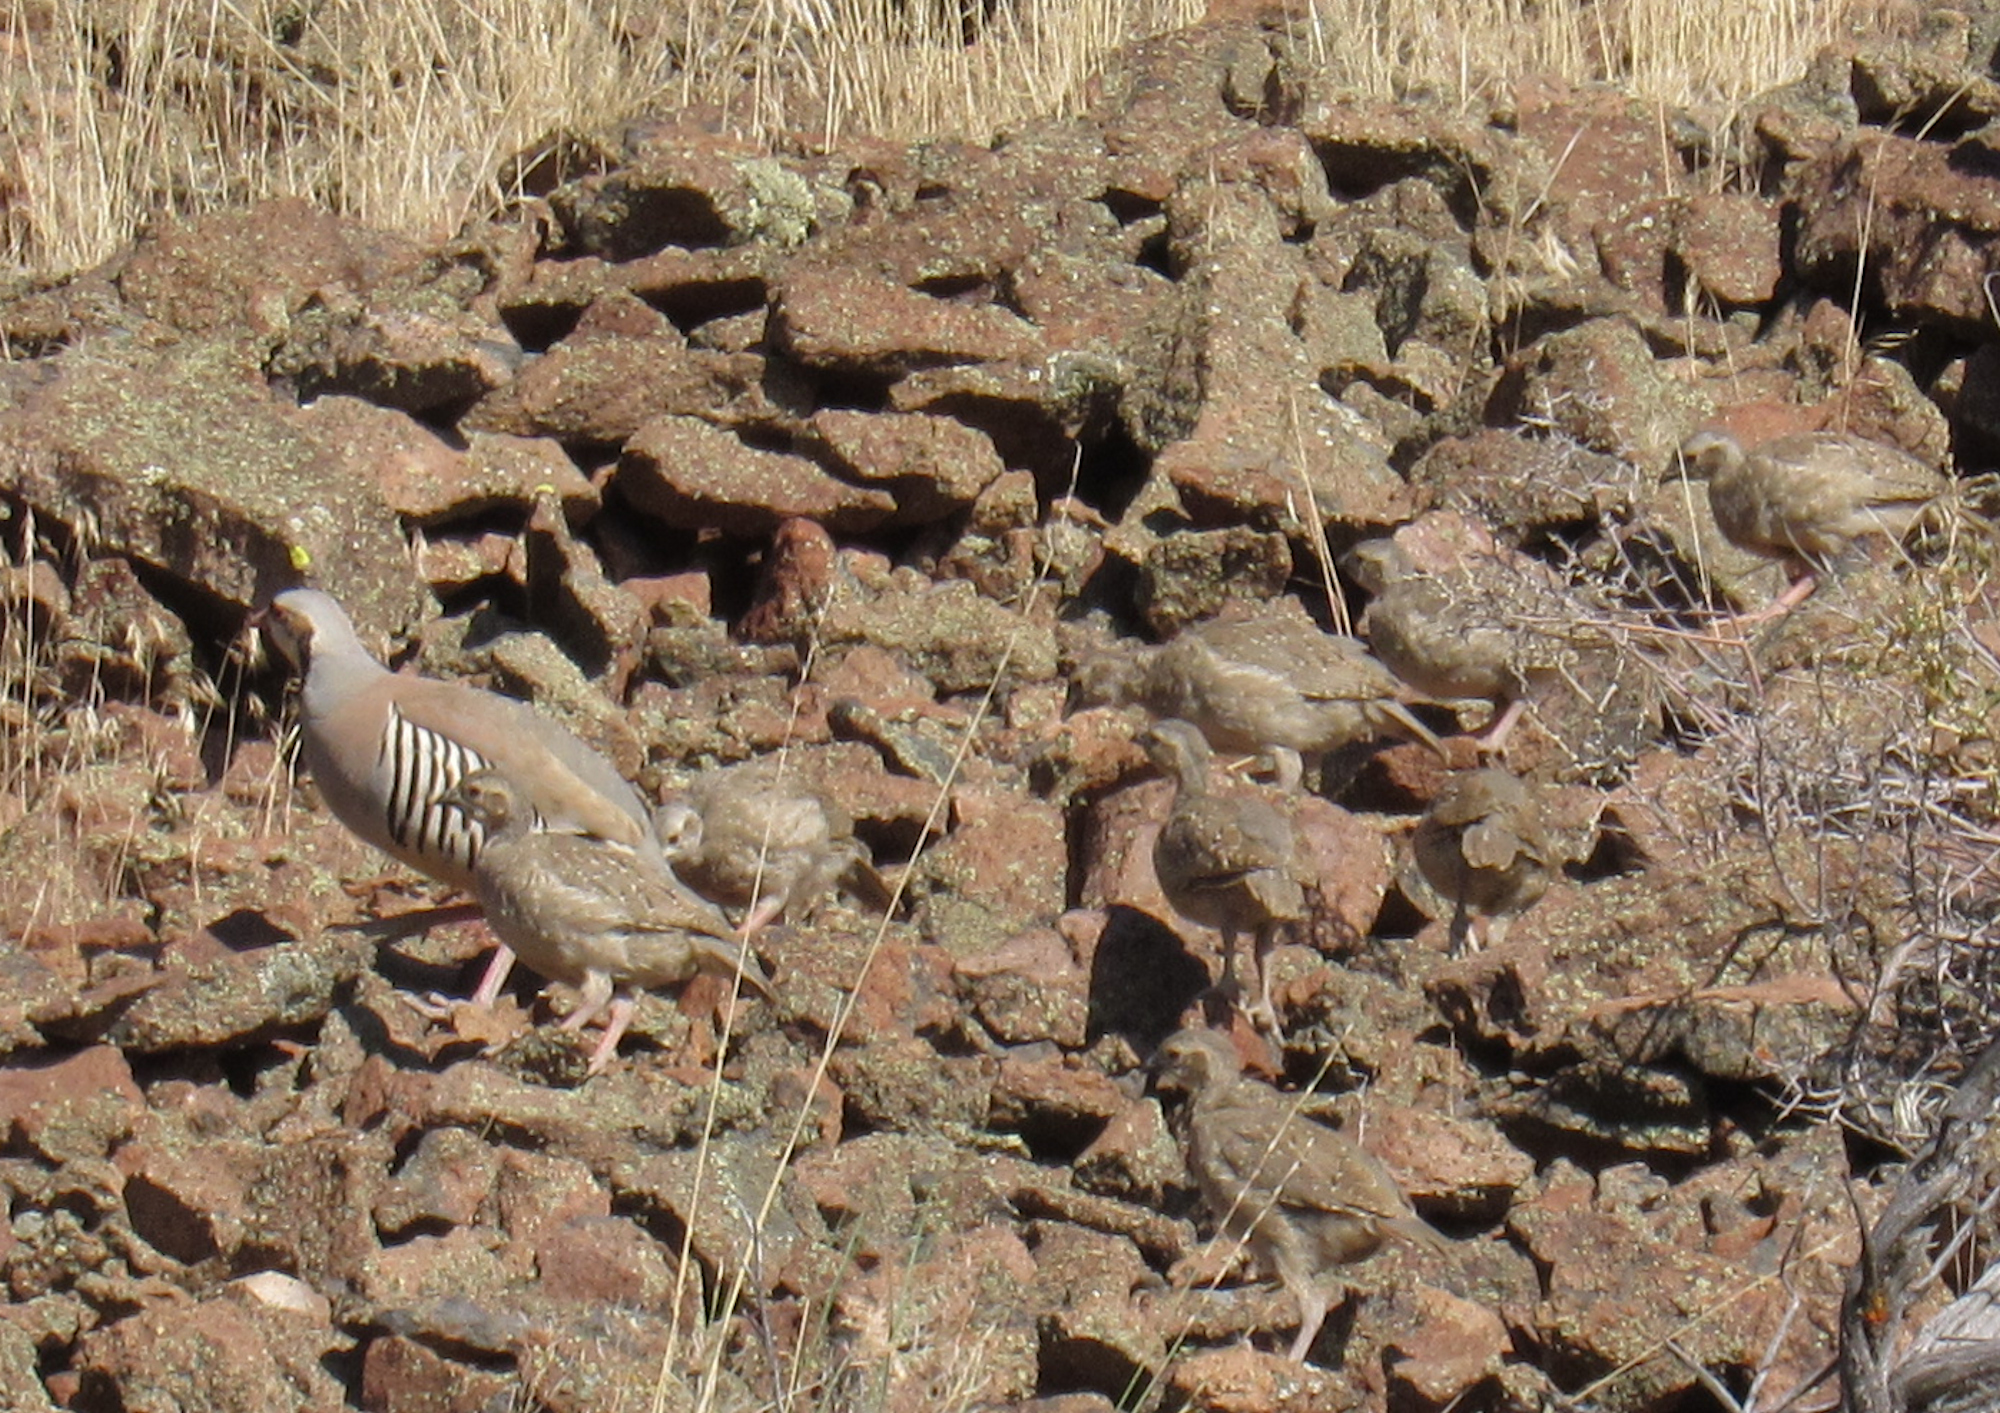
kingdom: Animalia
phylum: Chordata
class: Aves
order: Galliformes
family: Phasianidae
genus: Alectoris
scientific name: Alectoris chukar
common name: Chukar
